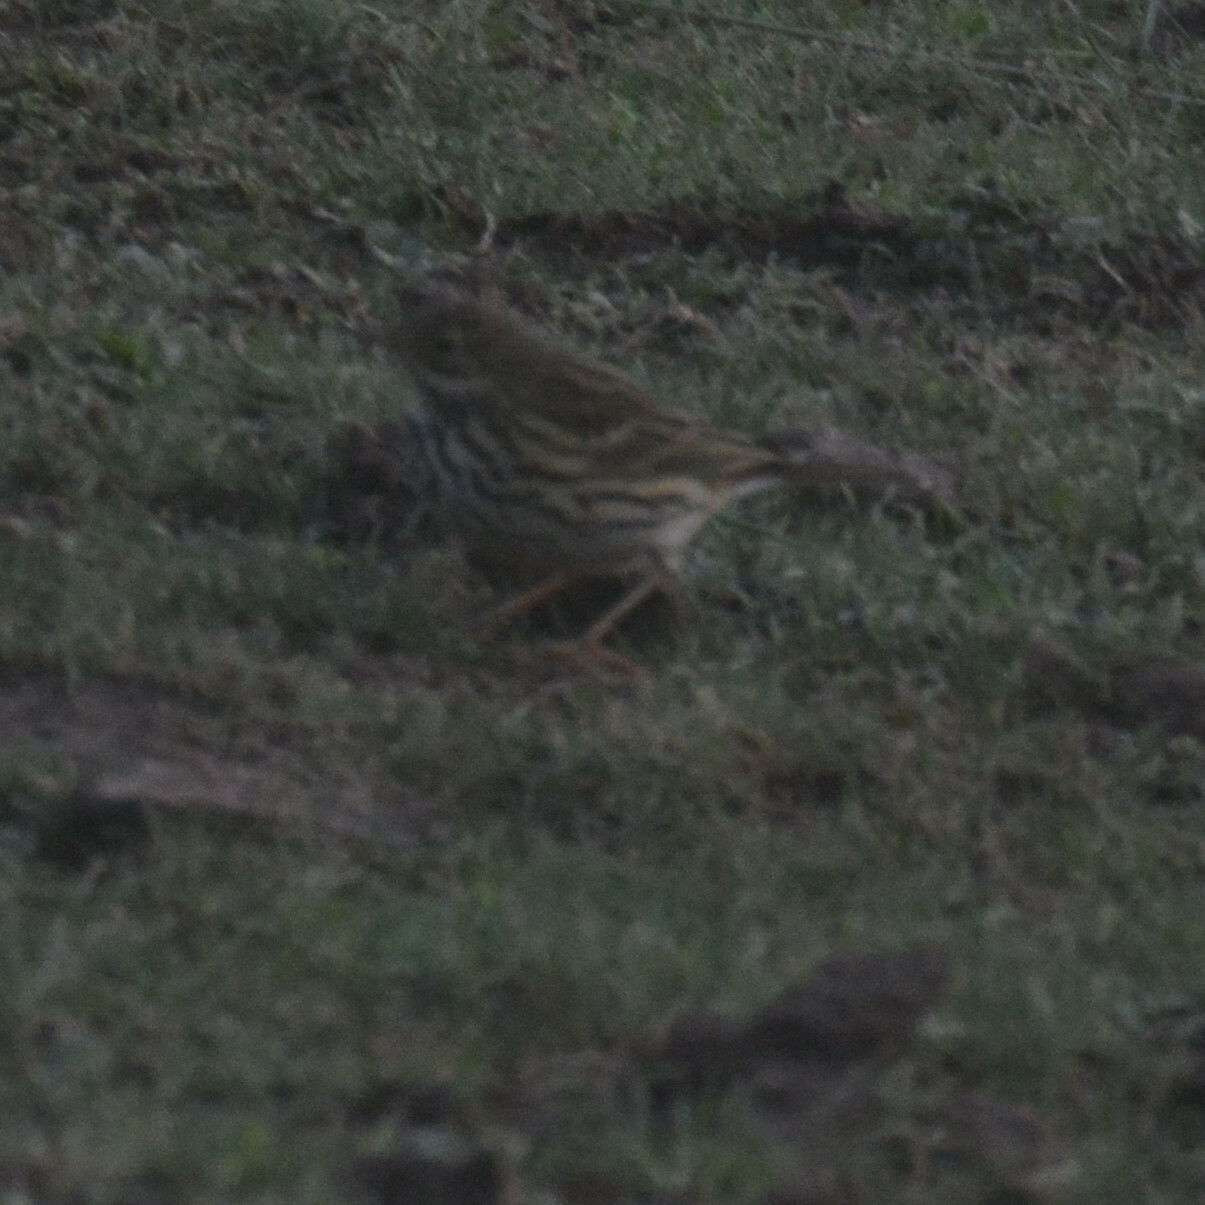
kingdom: Animalia
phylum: Chordata
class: Aves
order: Passeriformes
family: Motacillidae
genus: Anthus
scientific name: Anthus pratensis
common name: Meadow pipit
